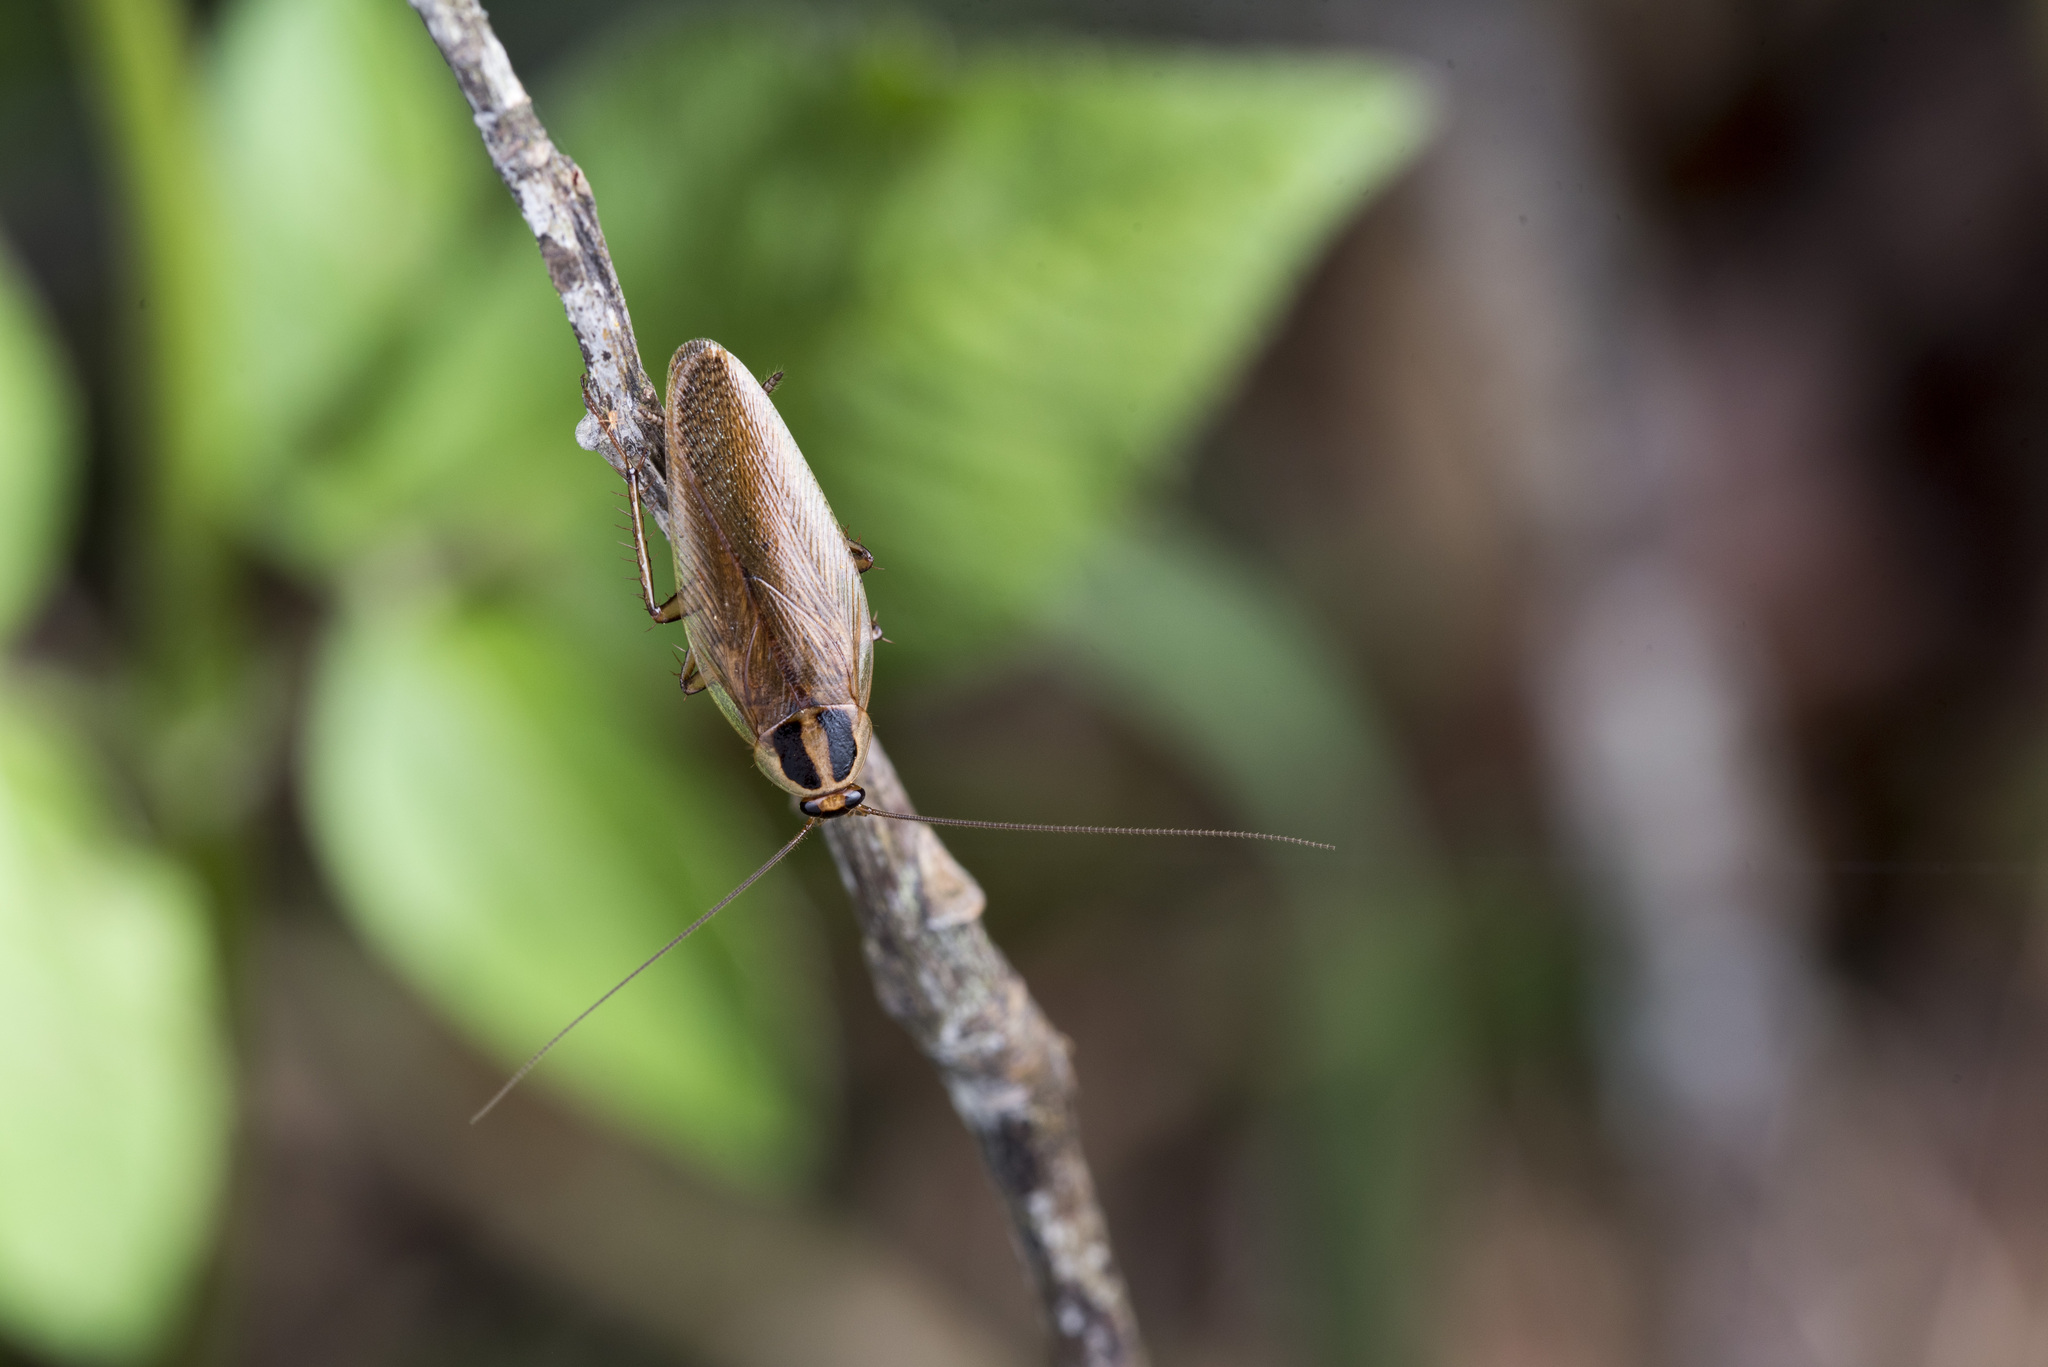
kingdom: Animalia
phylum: Arthropoda
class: Insecta
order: Blattodea
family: Ectobiidae
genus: Blattella
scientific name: Blattella karnyi
